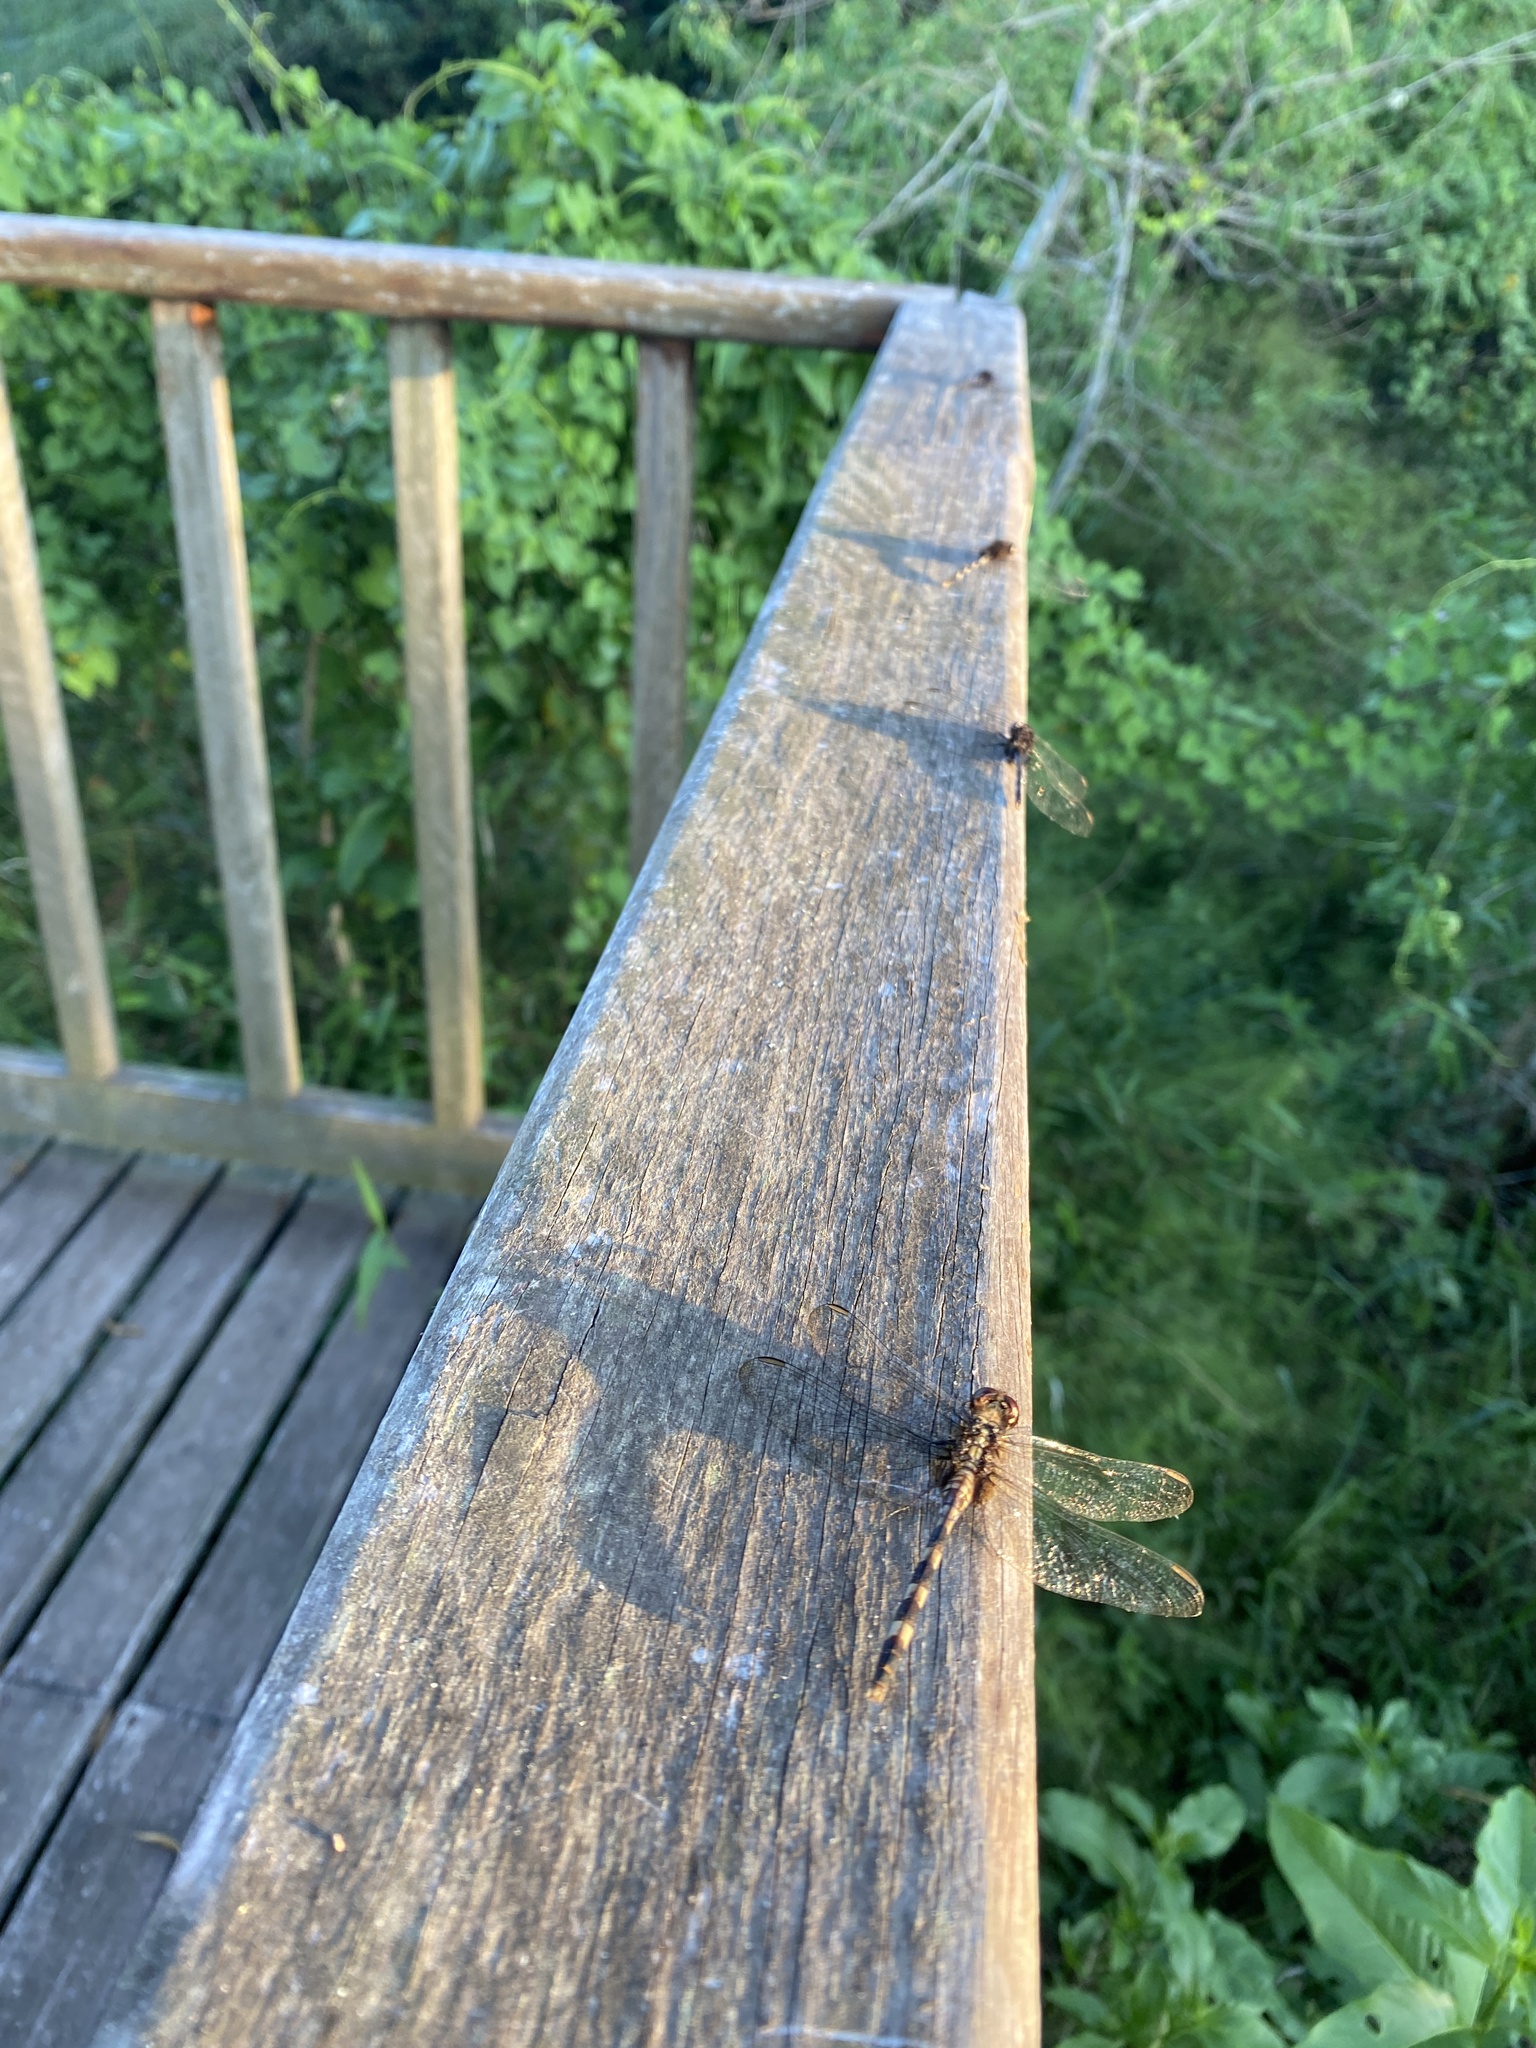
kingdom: Animalia
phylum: Arthropoda
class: Insecta
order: Odonata
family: Libellulidae
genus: Erythemis
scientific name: Erythemis plebeja
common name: Pin-tailed pondhawk
